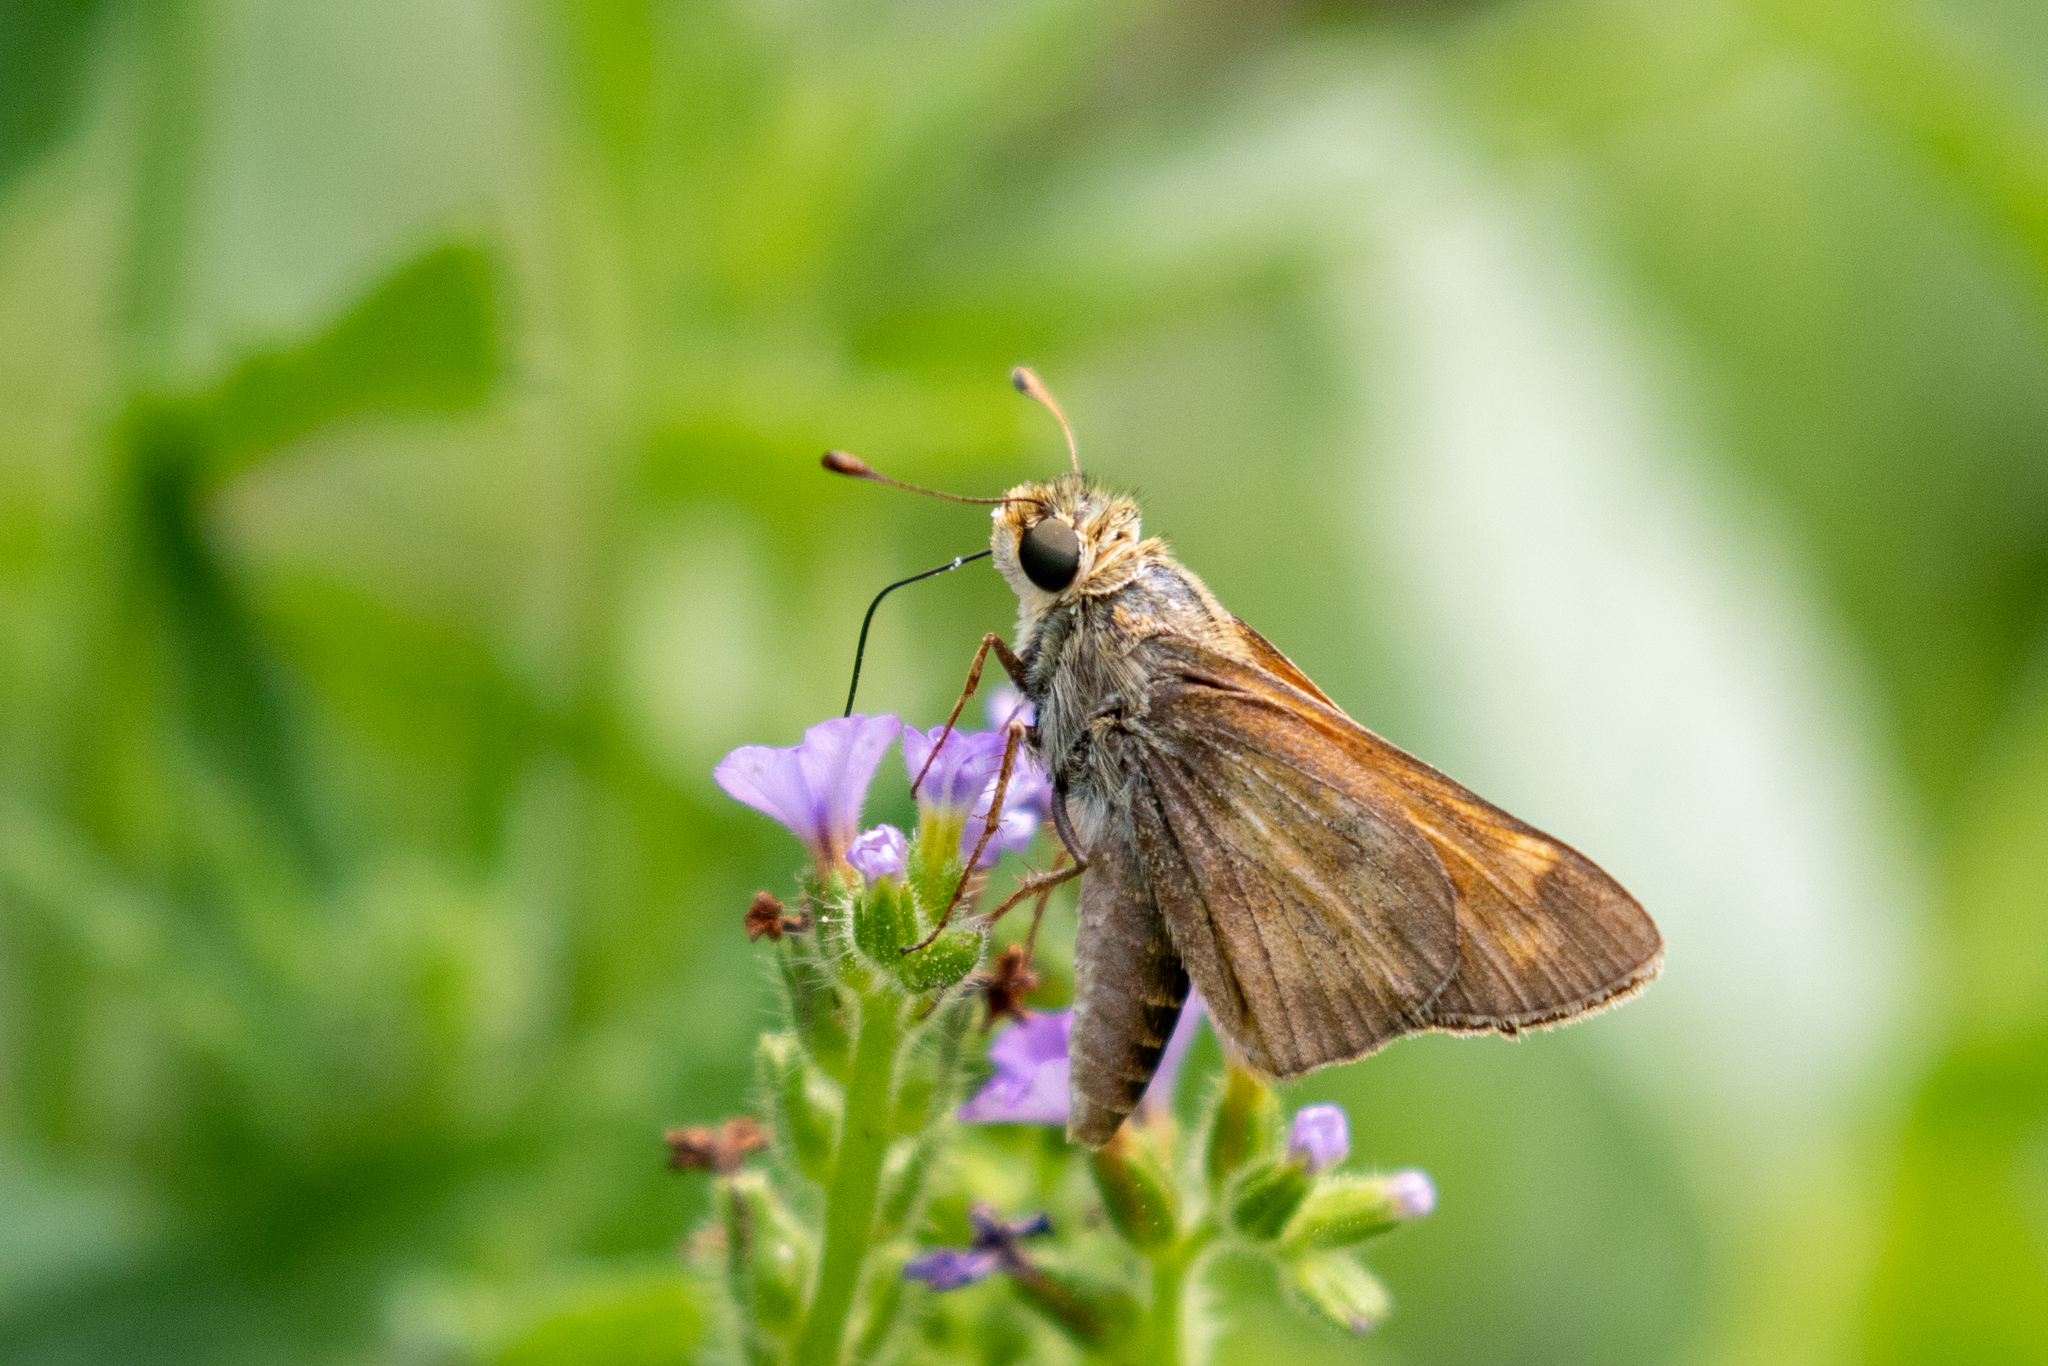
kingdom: Animalia
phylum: Arthropoda
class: Insecta
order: Lepidoptera
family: Hesperiidae
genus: Atalopedes
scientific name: Atalopedes
